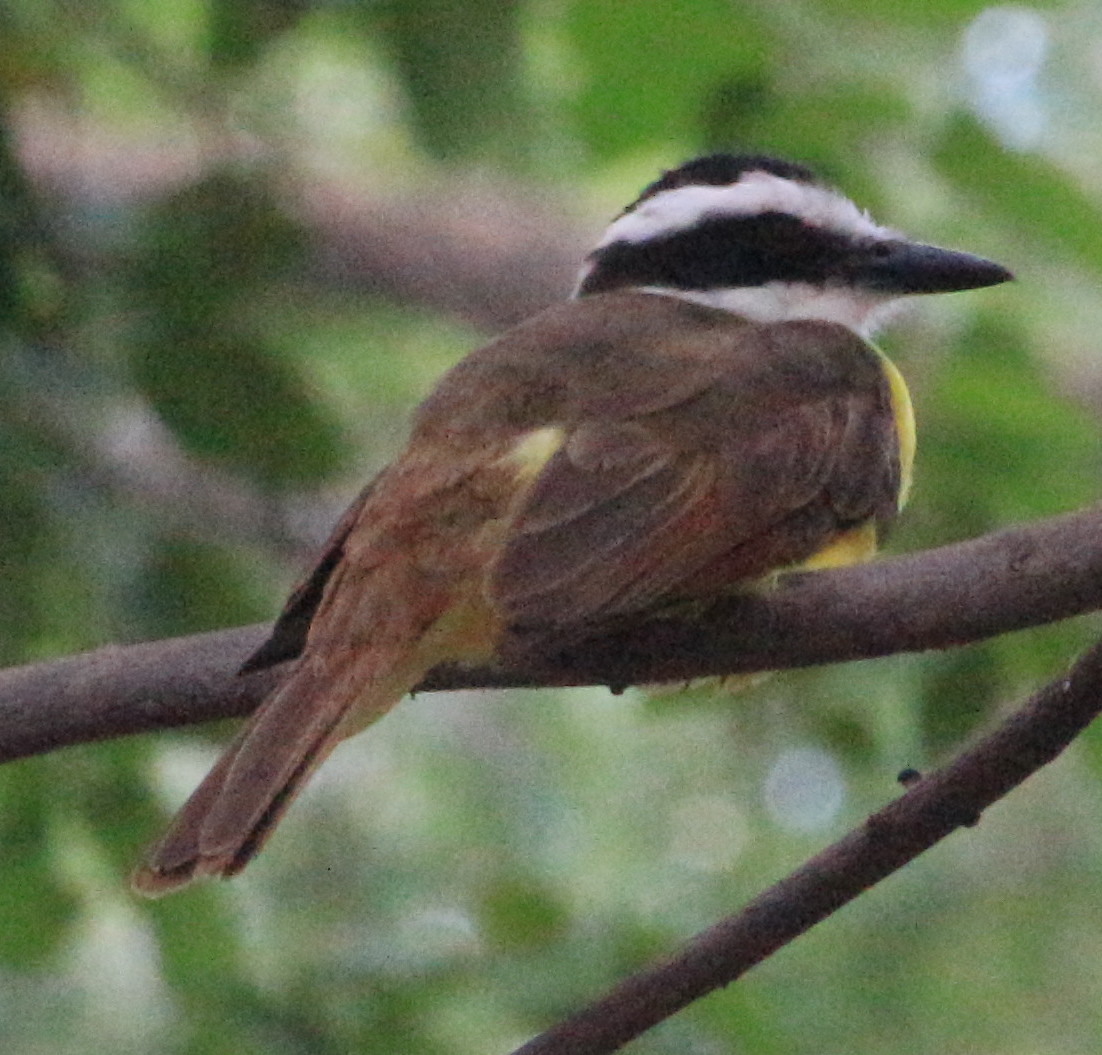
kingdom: Animalia
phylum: Chordata
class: Aves
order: Passeriformes
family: Tyrannidae
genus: Pitangus
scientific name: Pitangus sulphuratus
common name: Great kiskadee
